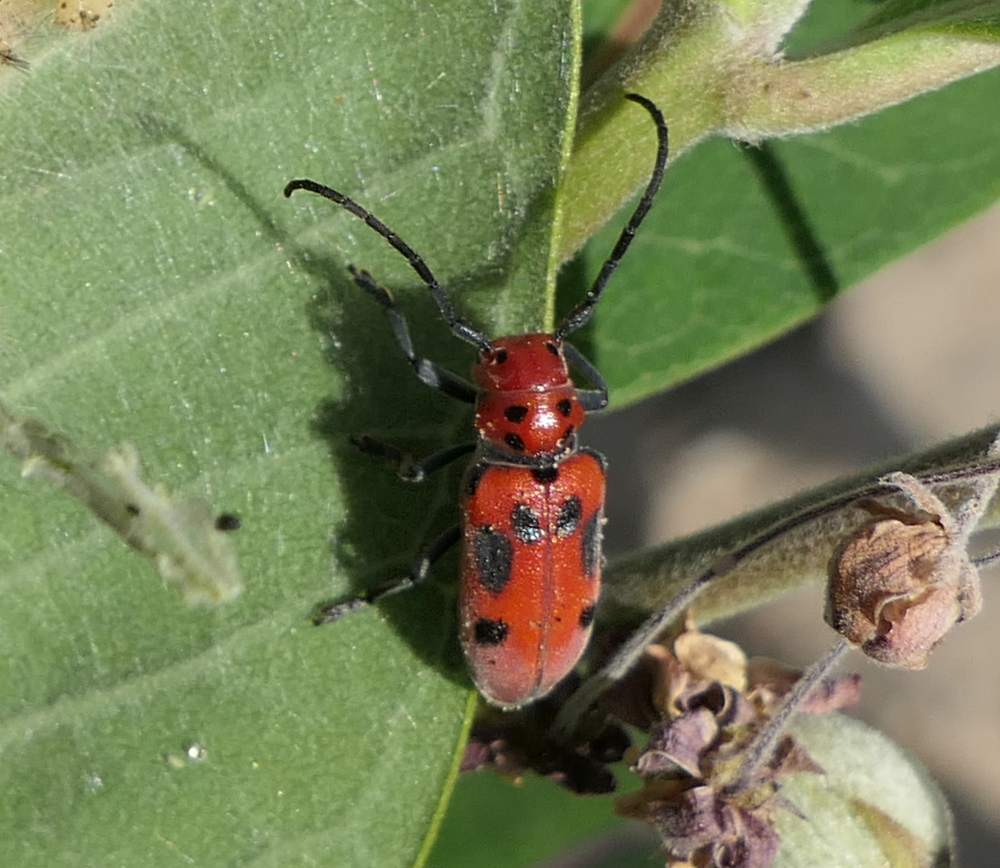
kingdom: Animalia
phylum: Arthropoda
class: Insecta
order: Coleoptera
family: Cerambycidae
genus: Tetraopes
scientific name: Tetraopes tetrophthalmus
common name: Red milkweed beetle
